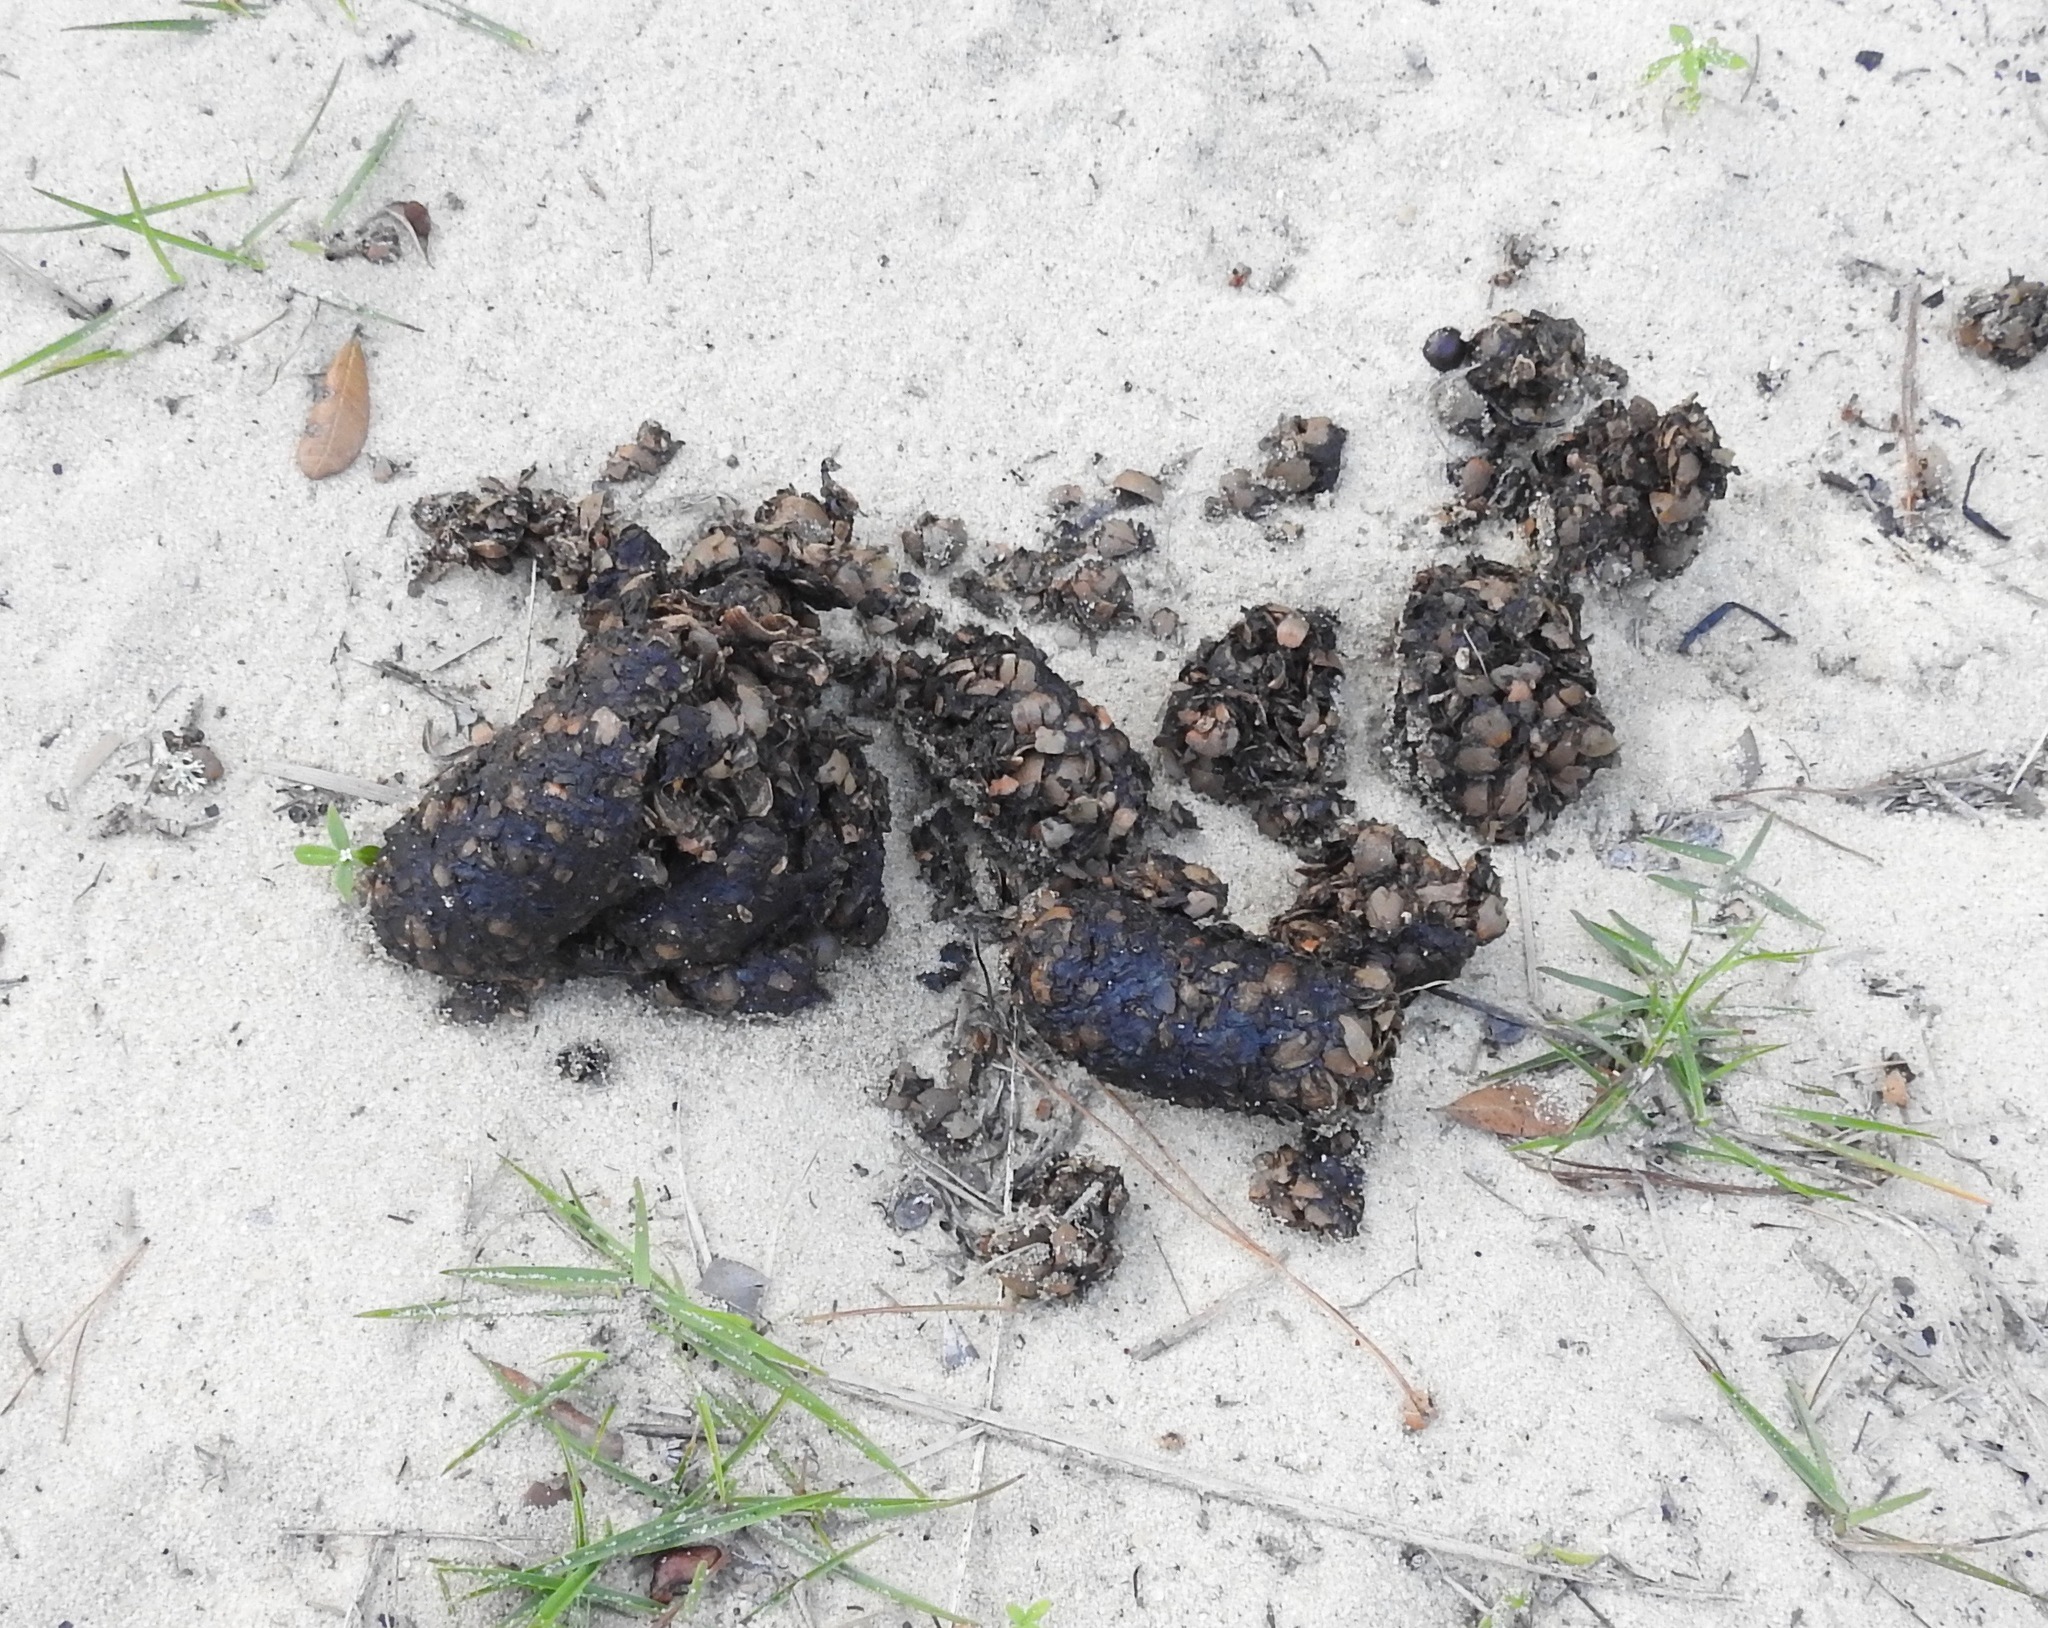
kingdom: Animalia
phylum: Chordata
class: Mammalia
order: Carnivora
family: Ursidae
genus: Ursus
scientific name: Ursus americanus
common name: American black bear
